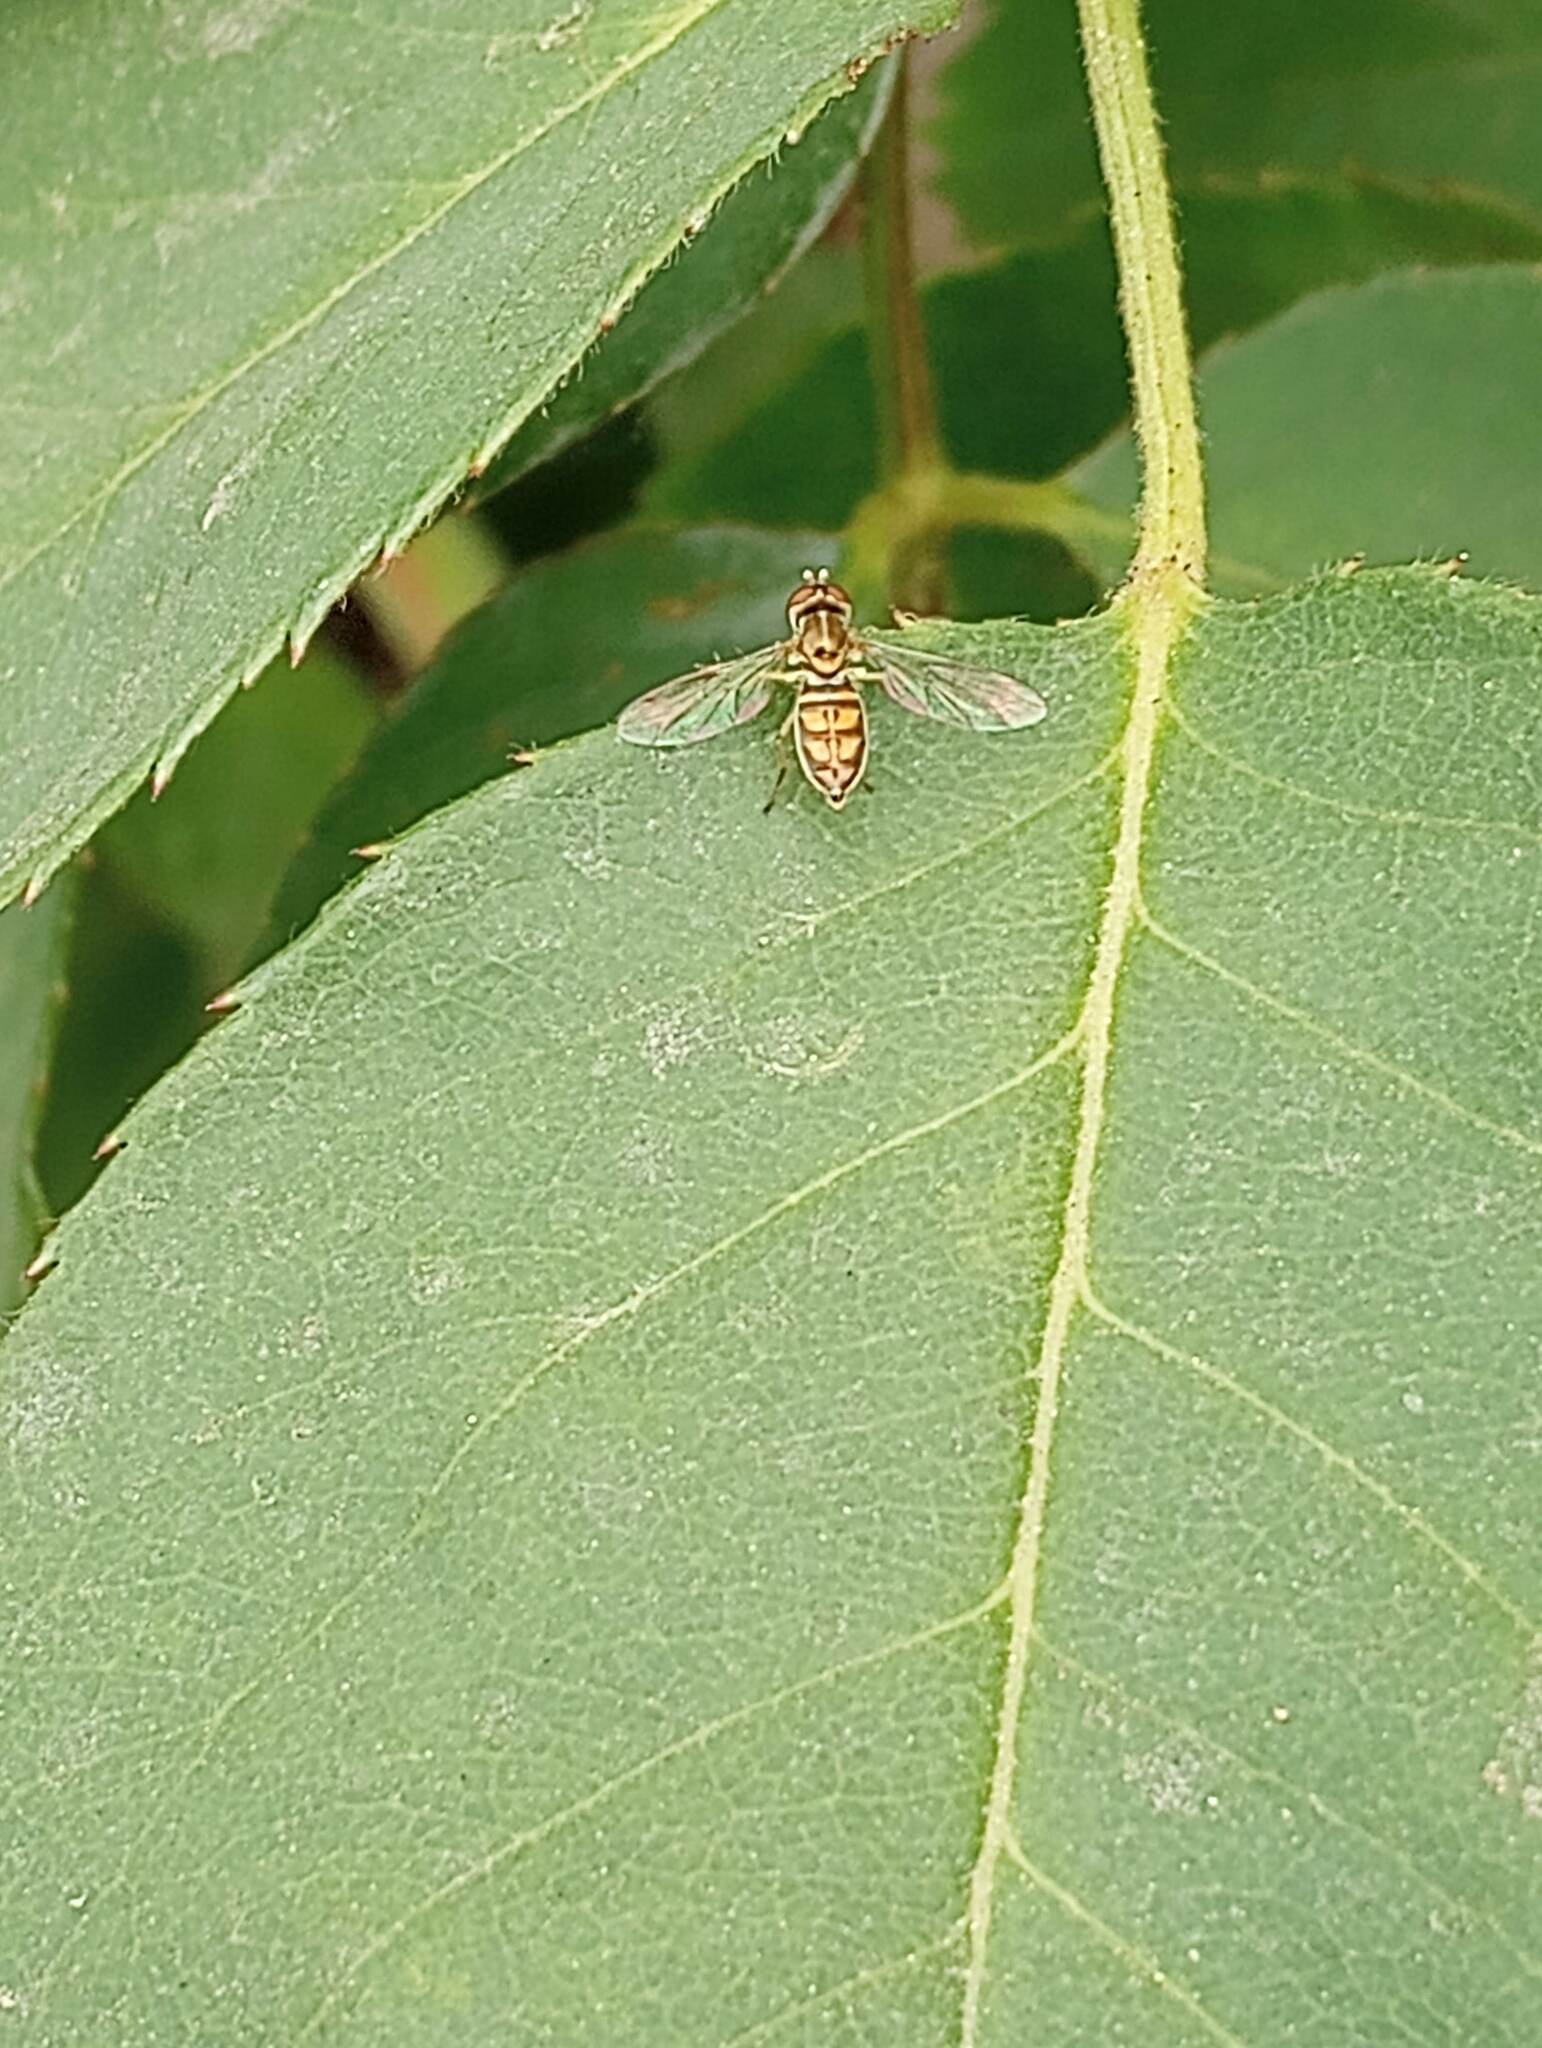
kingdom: Animalia
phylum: Arthropoda
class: Insecta
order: Diptera
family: Syrphidae
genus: Toxomerus
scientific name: Toxomerus marginatus
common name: Syrphid fly
